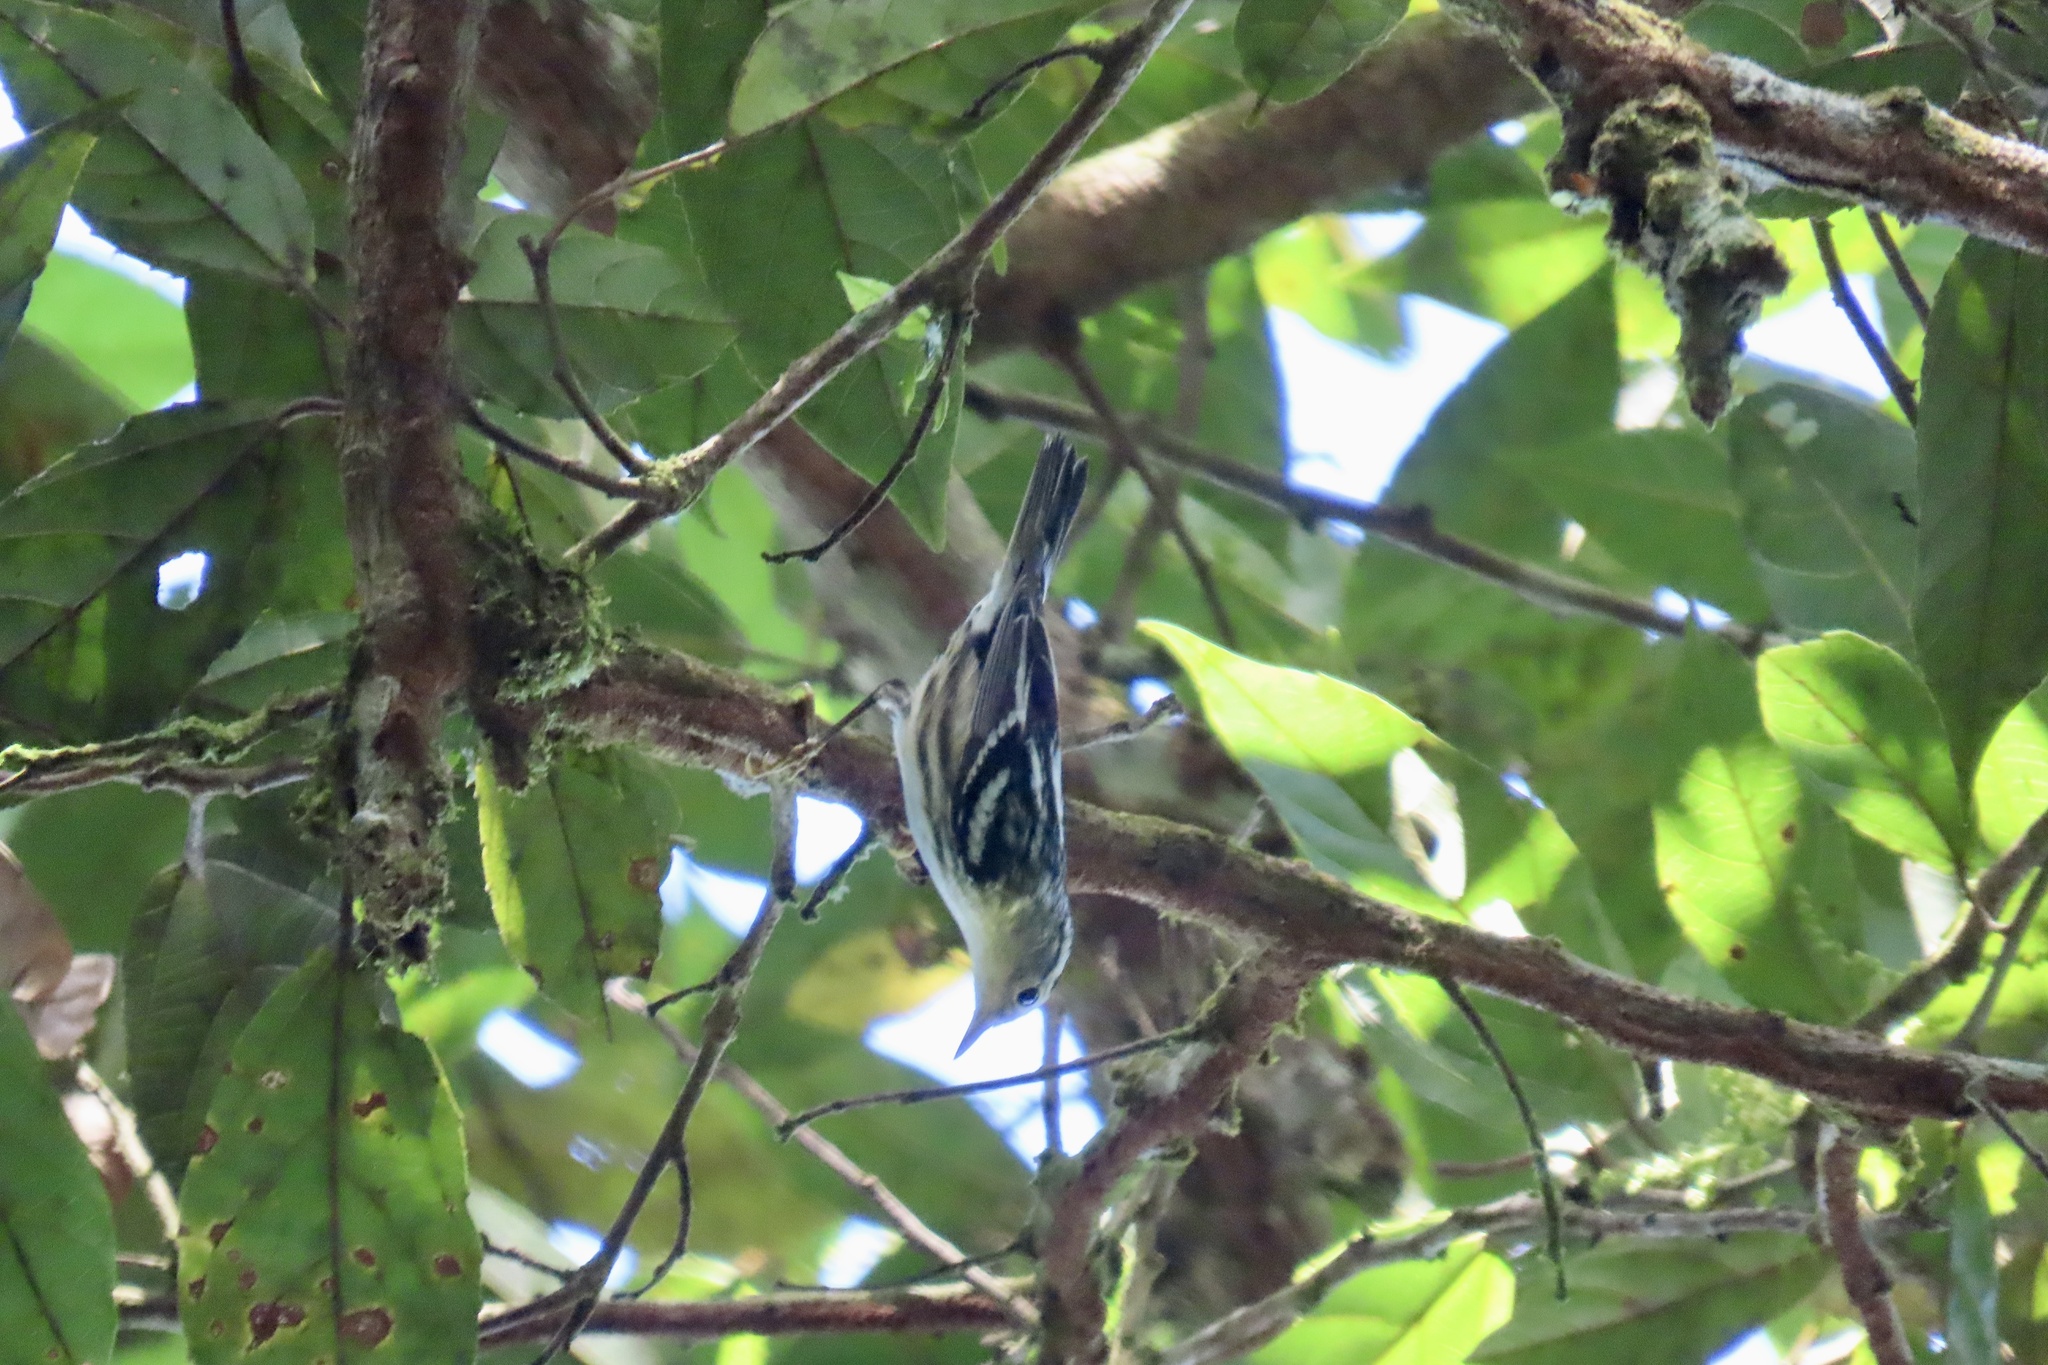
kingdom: Animalia
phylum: Chordata
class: Aves
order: Passeriformes
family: Parulidae
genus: Mniotilta
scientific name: Mniotilta varia
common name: Black-and-white warbler
